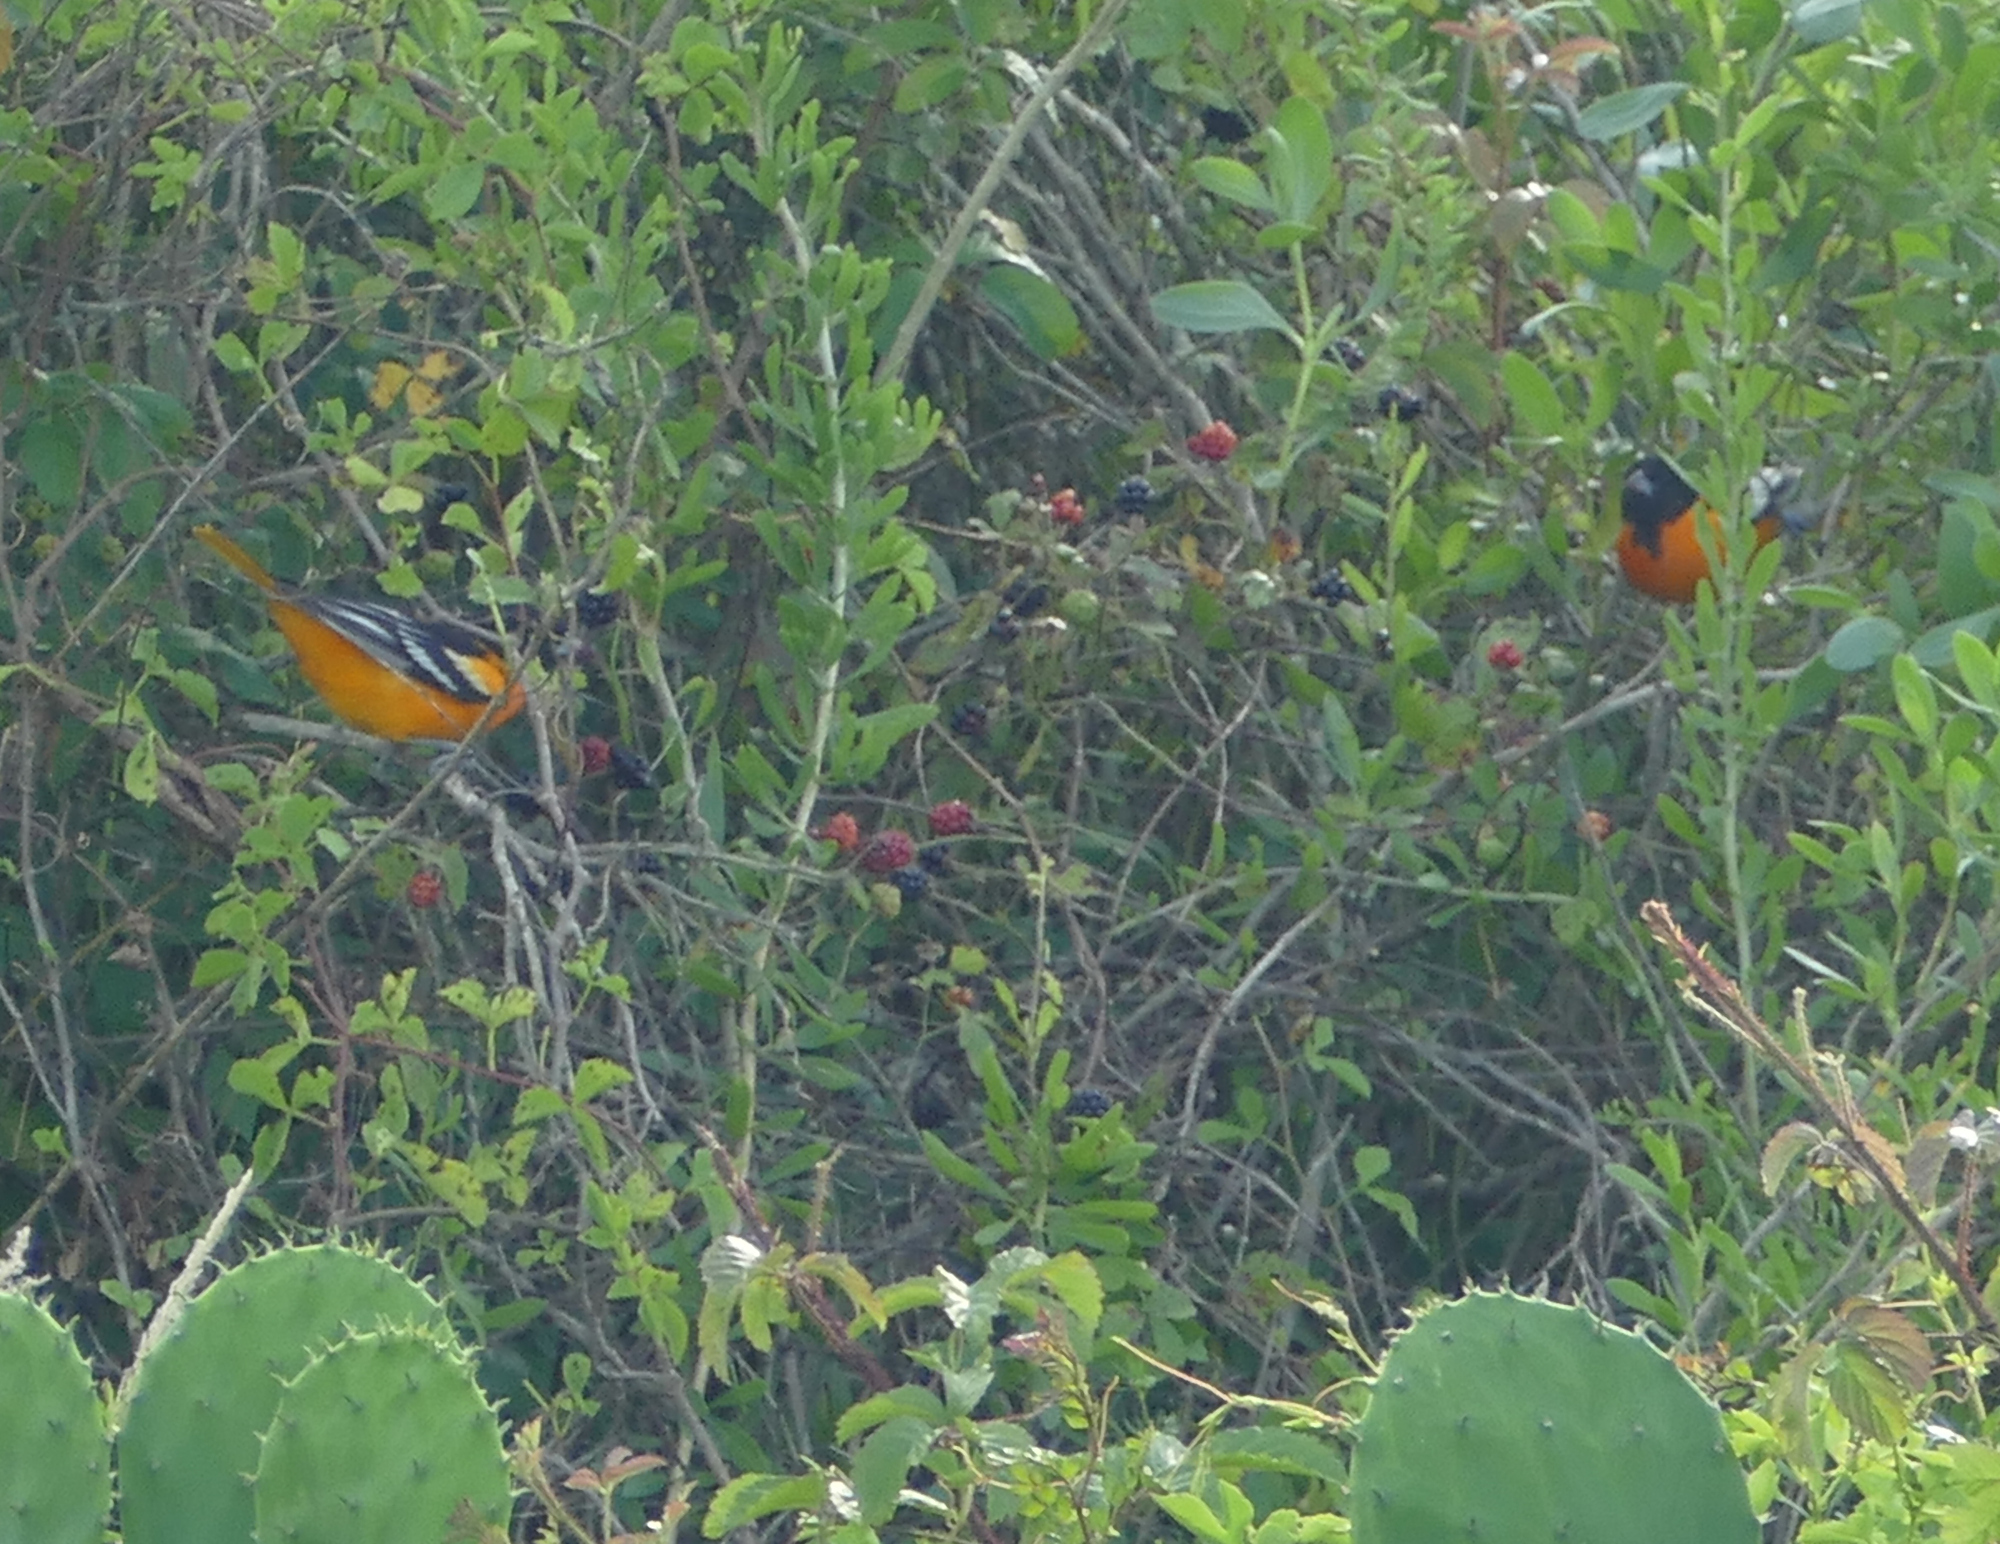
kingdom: Animalia
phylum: Chordata
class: Aves
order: Passeriformes
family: Icteridae
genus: Icterus
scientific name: Icterus galbula
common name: Baltimore oriole
